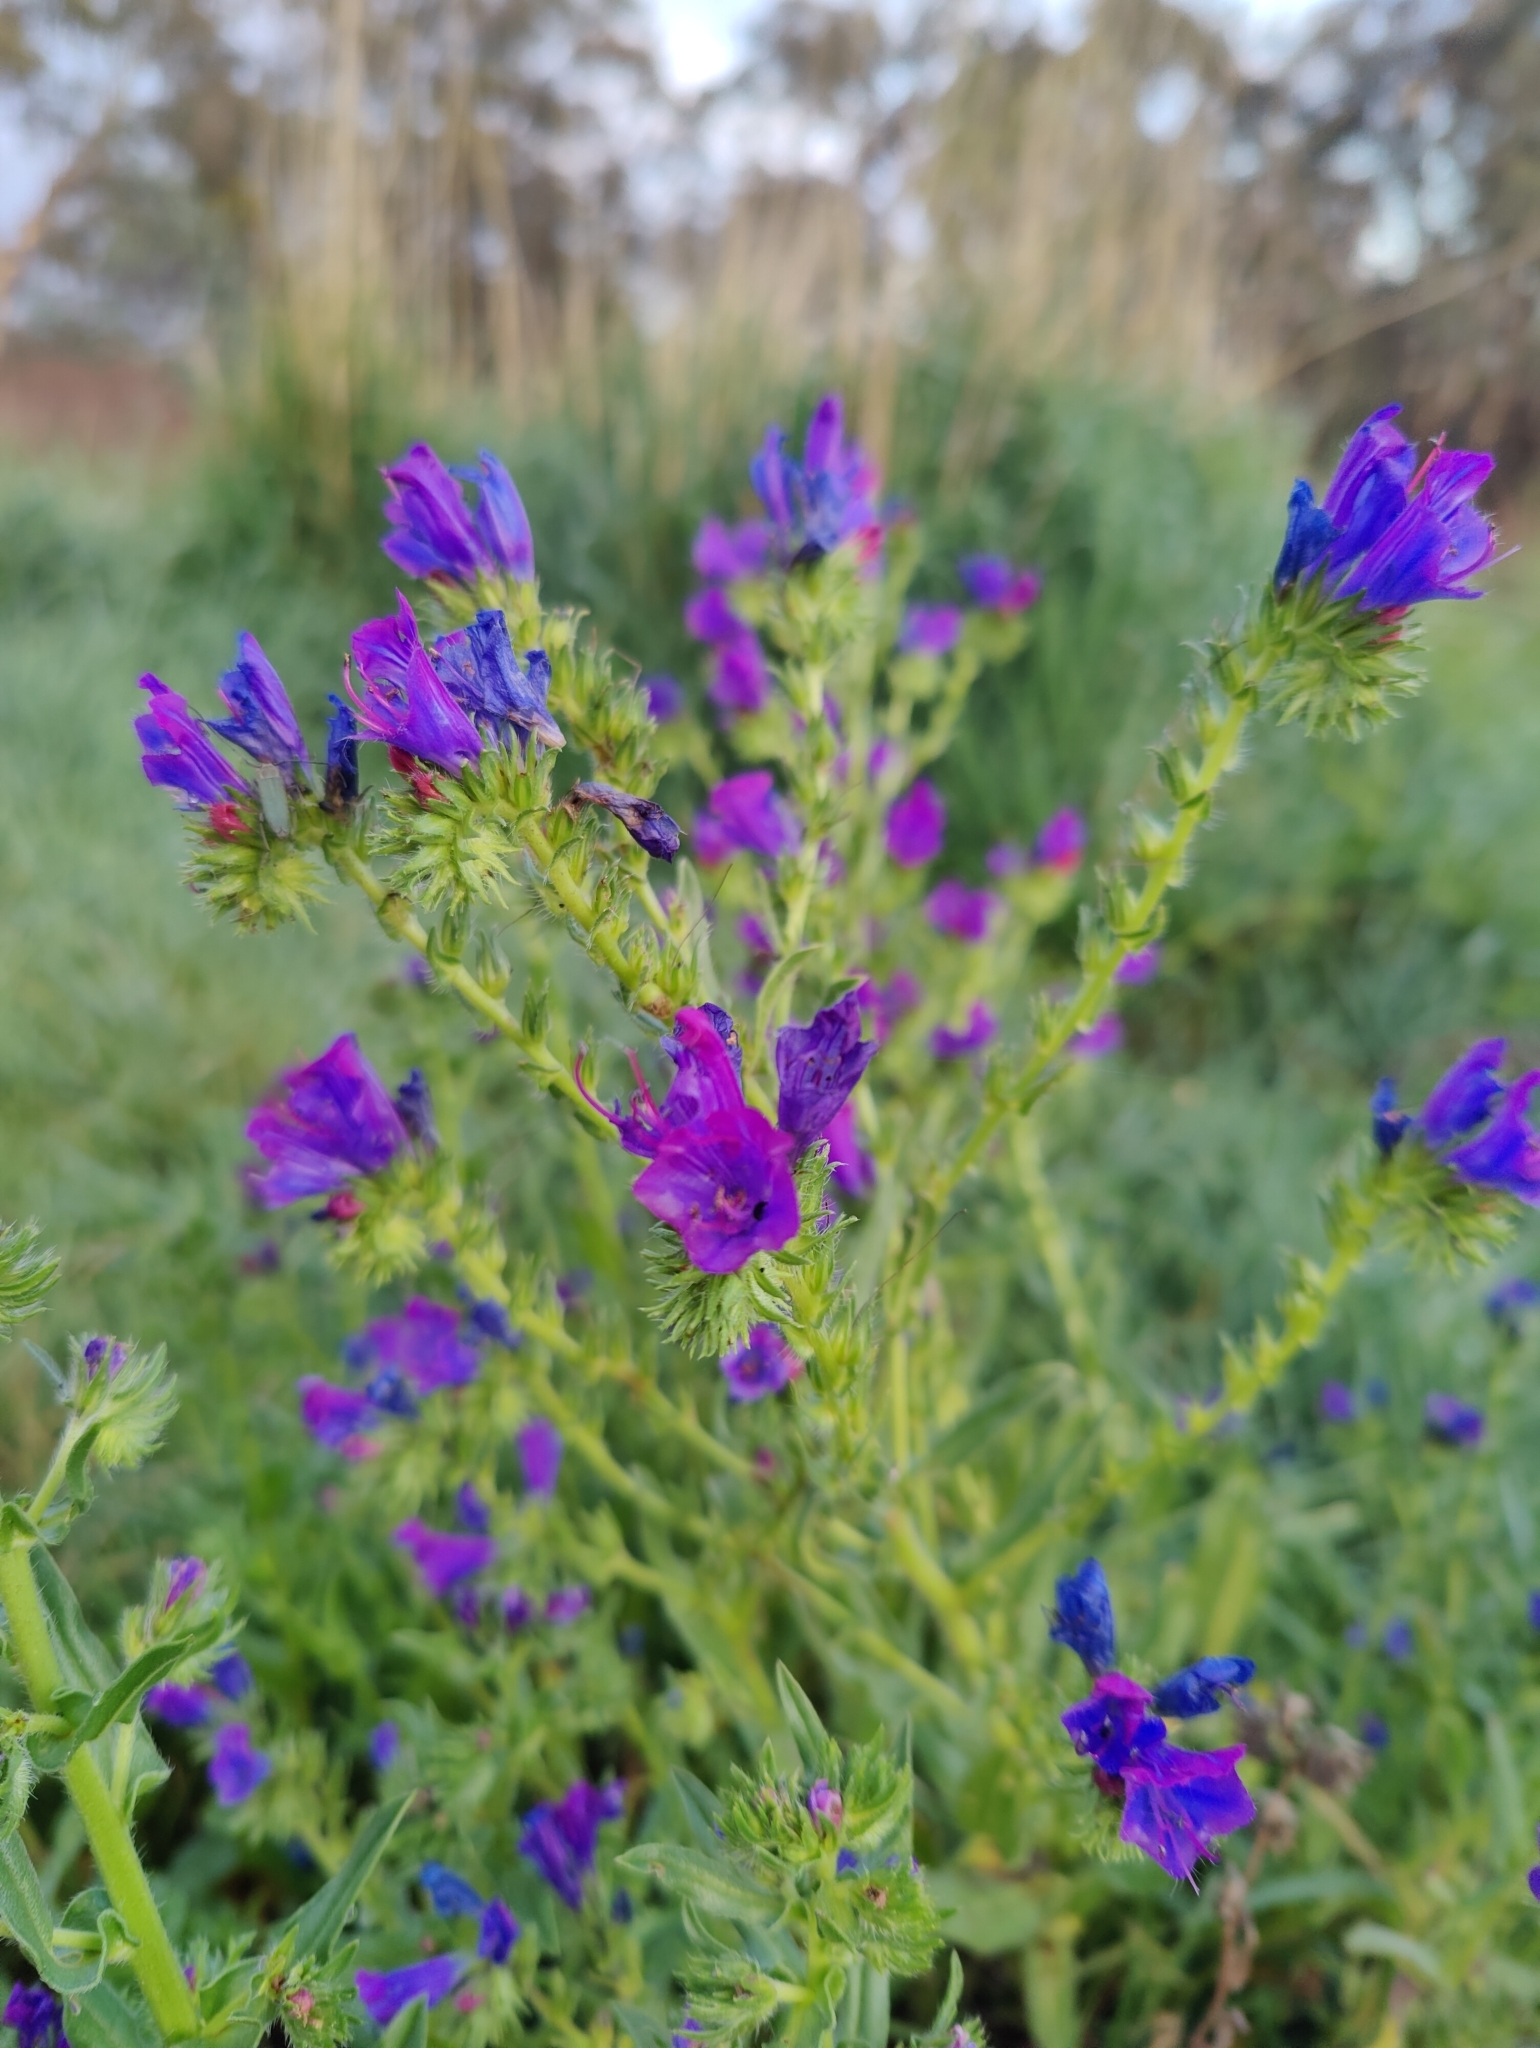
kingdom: Plantae
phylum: Tracheophyta
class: Magnoliopsida
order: Boraginales
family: Boraginaceae
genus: Echium
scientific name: Echium plantagineum
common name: Purple viper's-bugloss
